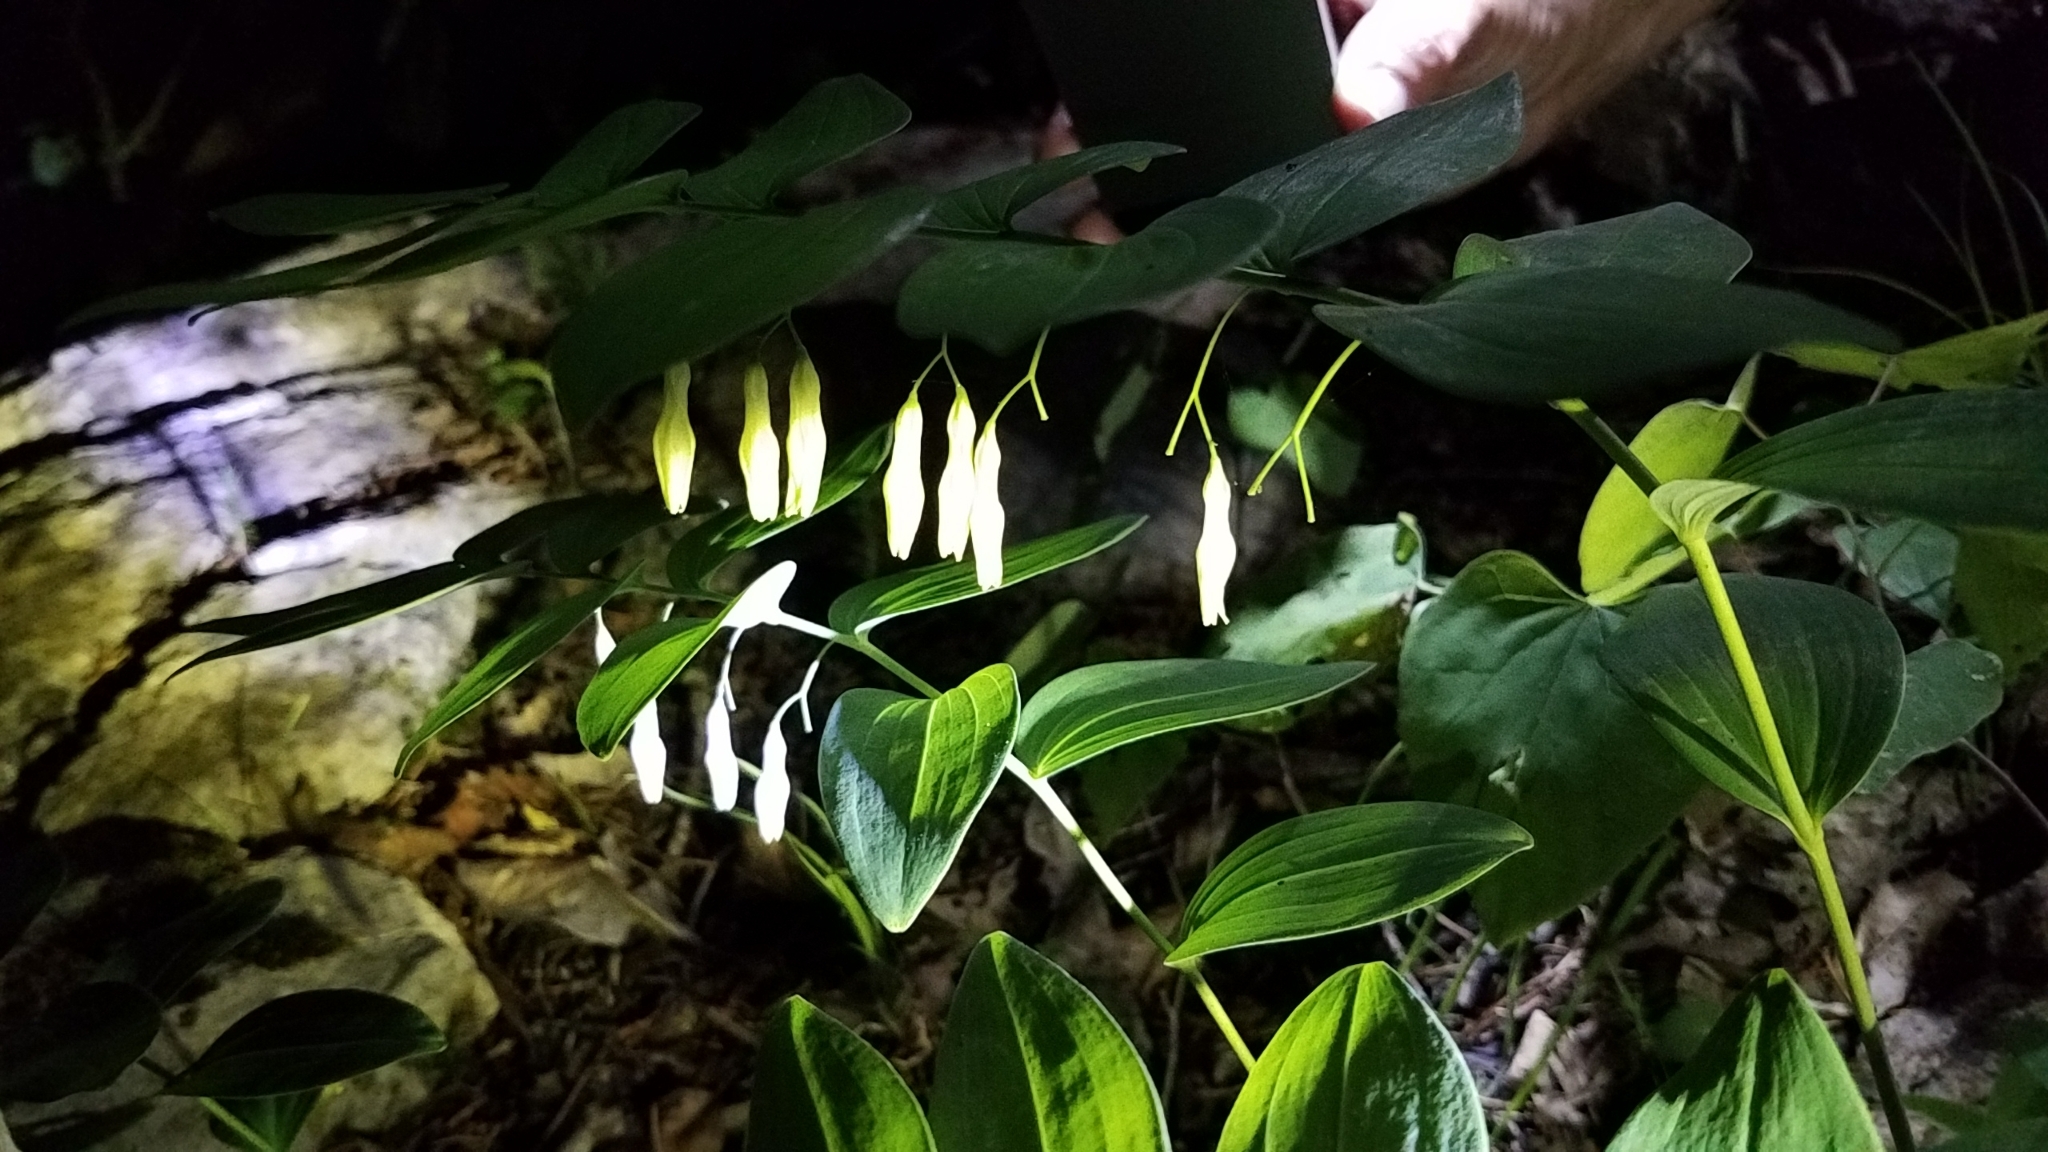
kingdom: Plantae
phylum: Tracheophyta
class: Liliopsida
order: Asparagales
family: Asparagaceae
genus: Polygonatum
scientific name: Polygonatum biflorum
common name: American solomon's-seal
